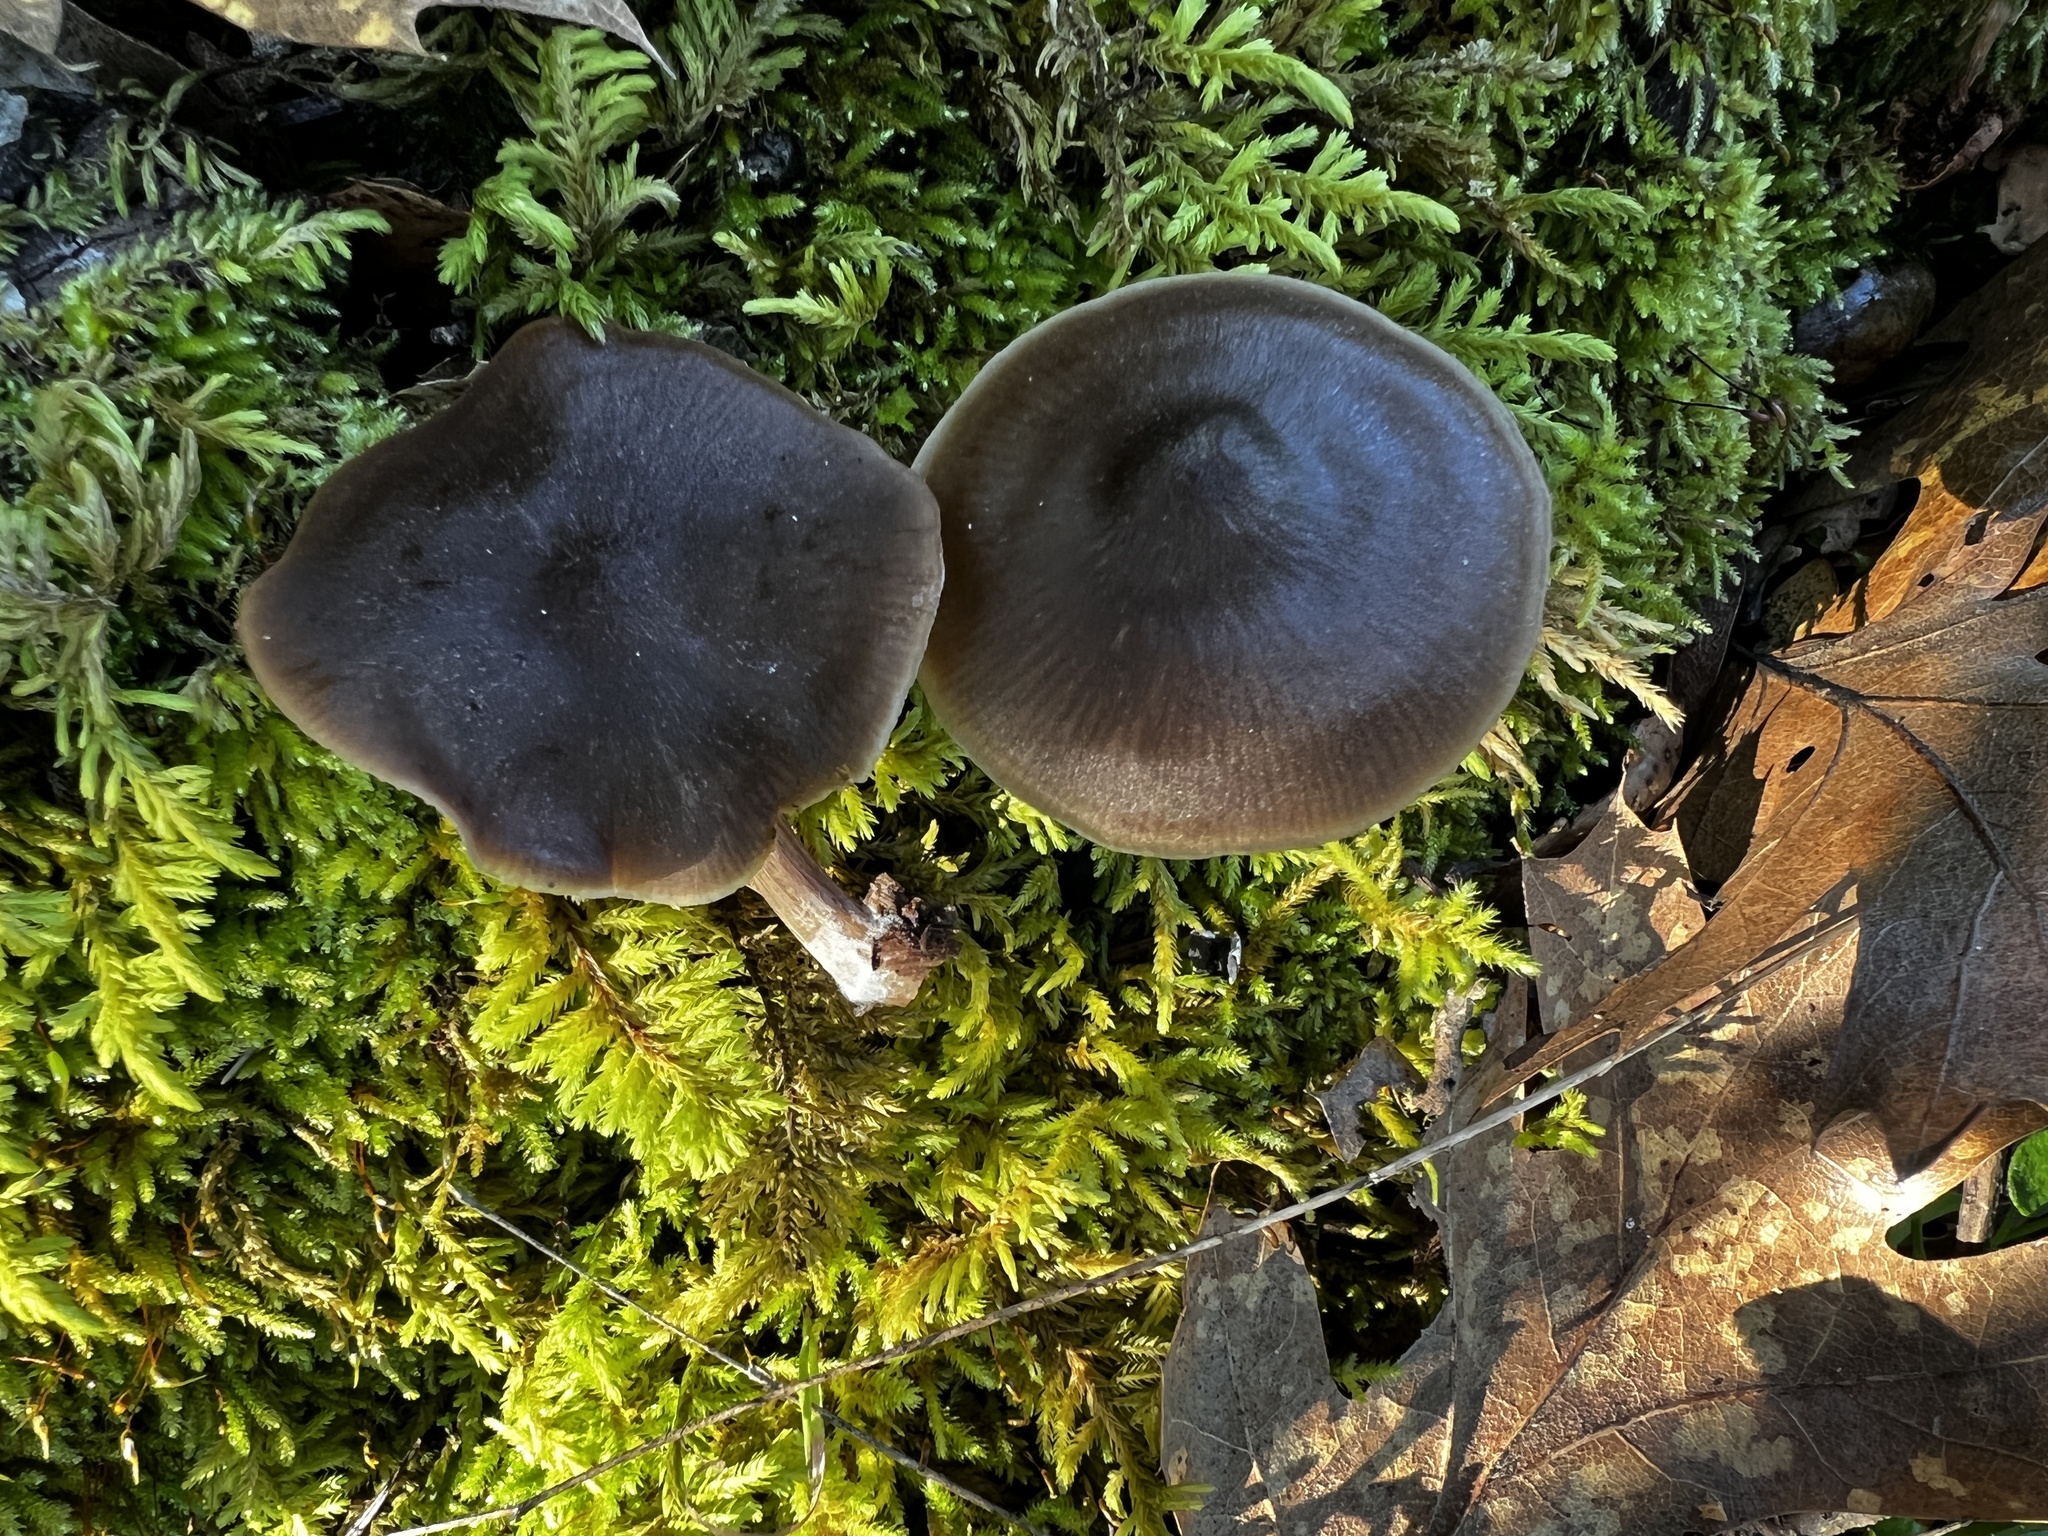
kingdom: Fungi
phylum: Basidiomycota
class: Agaricomycetes
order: Agaricales
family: Entolomataceae
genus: Entoloma
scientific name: Entoloma sericeum
